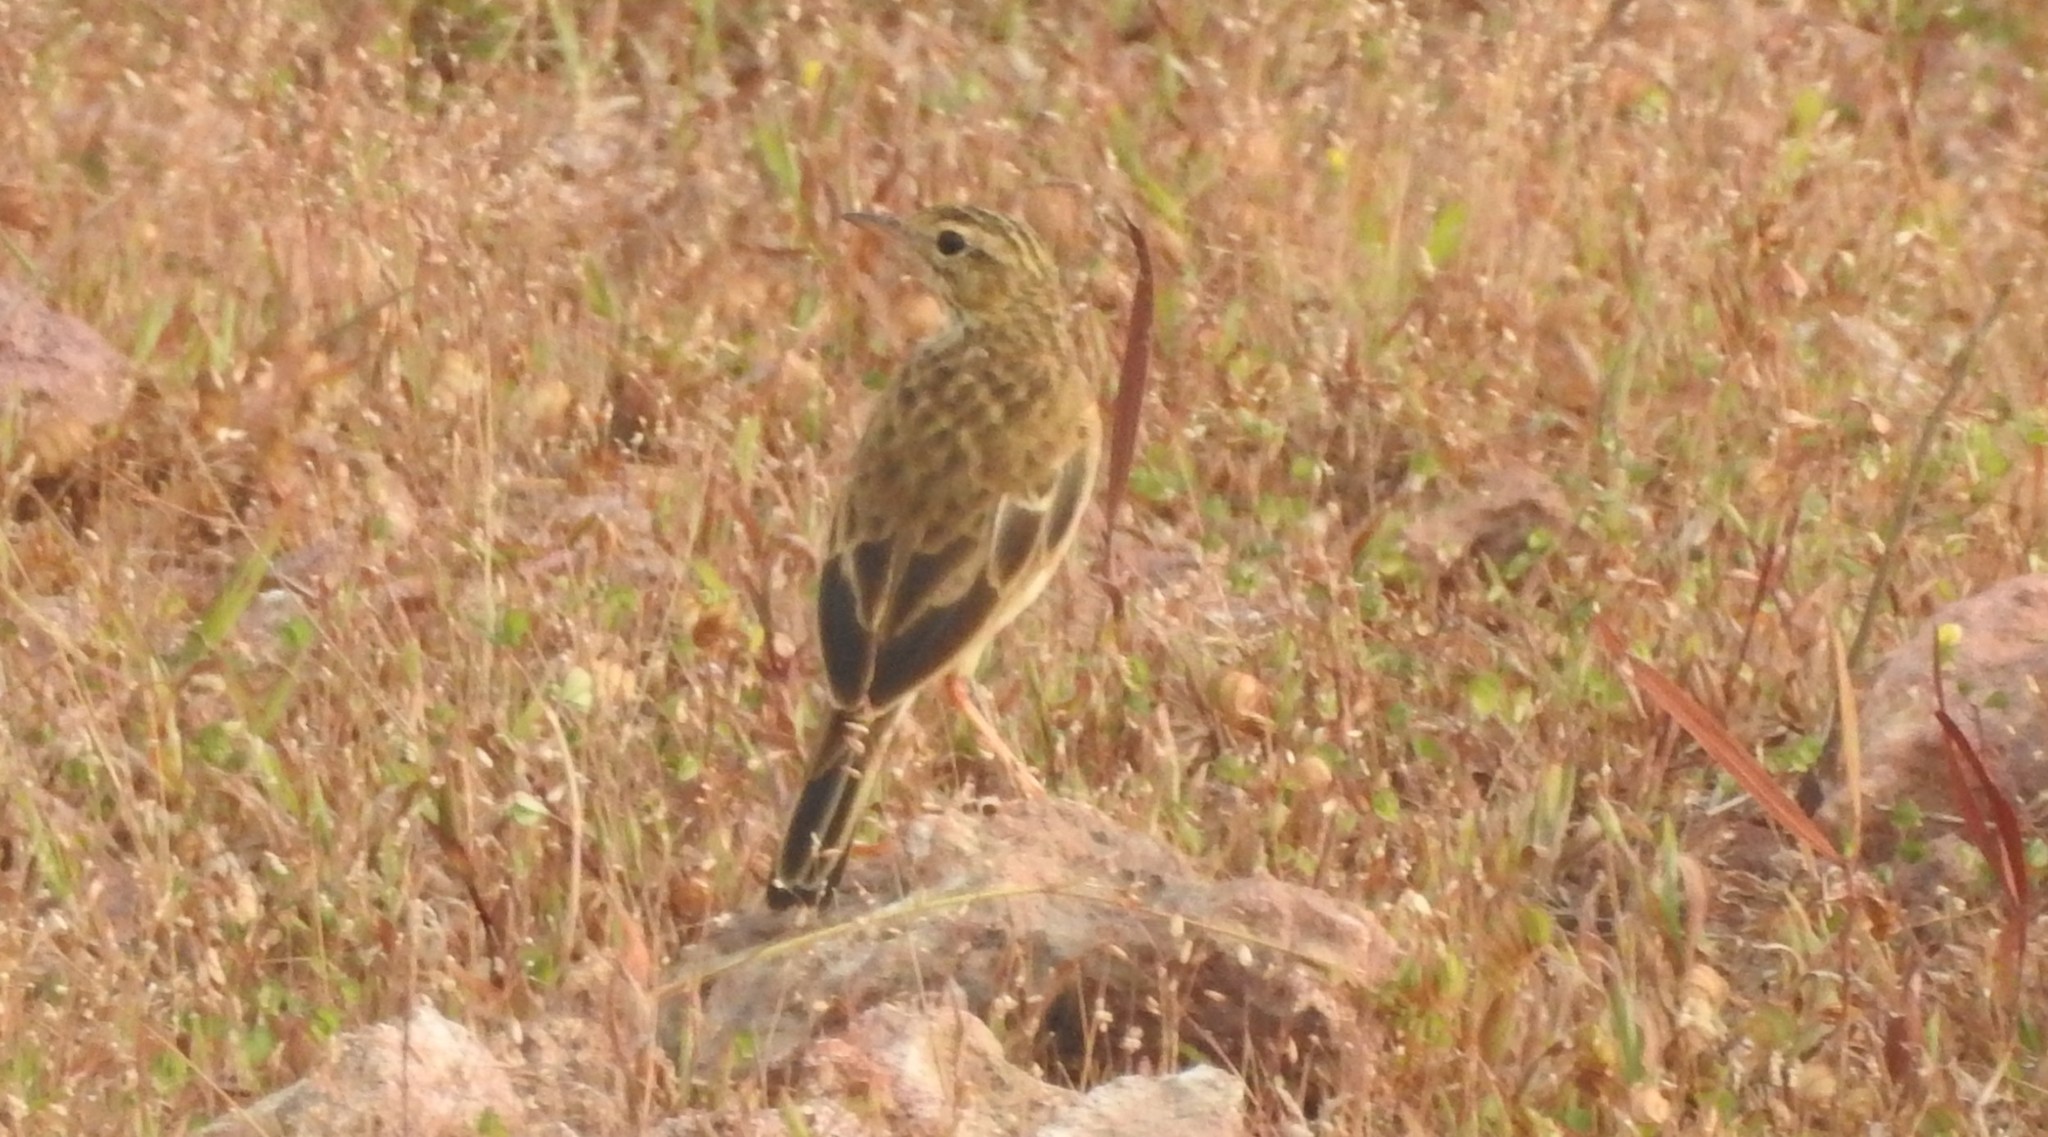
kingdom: Animalia
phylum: Chordata
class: Aves
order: Passeriformes
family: Motacillidae
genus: Anthus
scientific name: Anthus rufulus
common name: Paddyfield pipit
